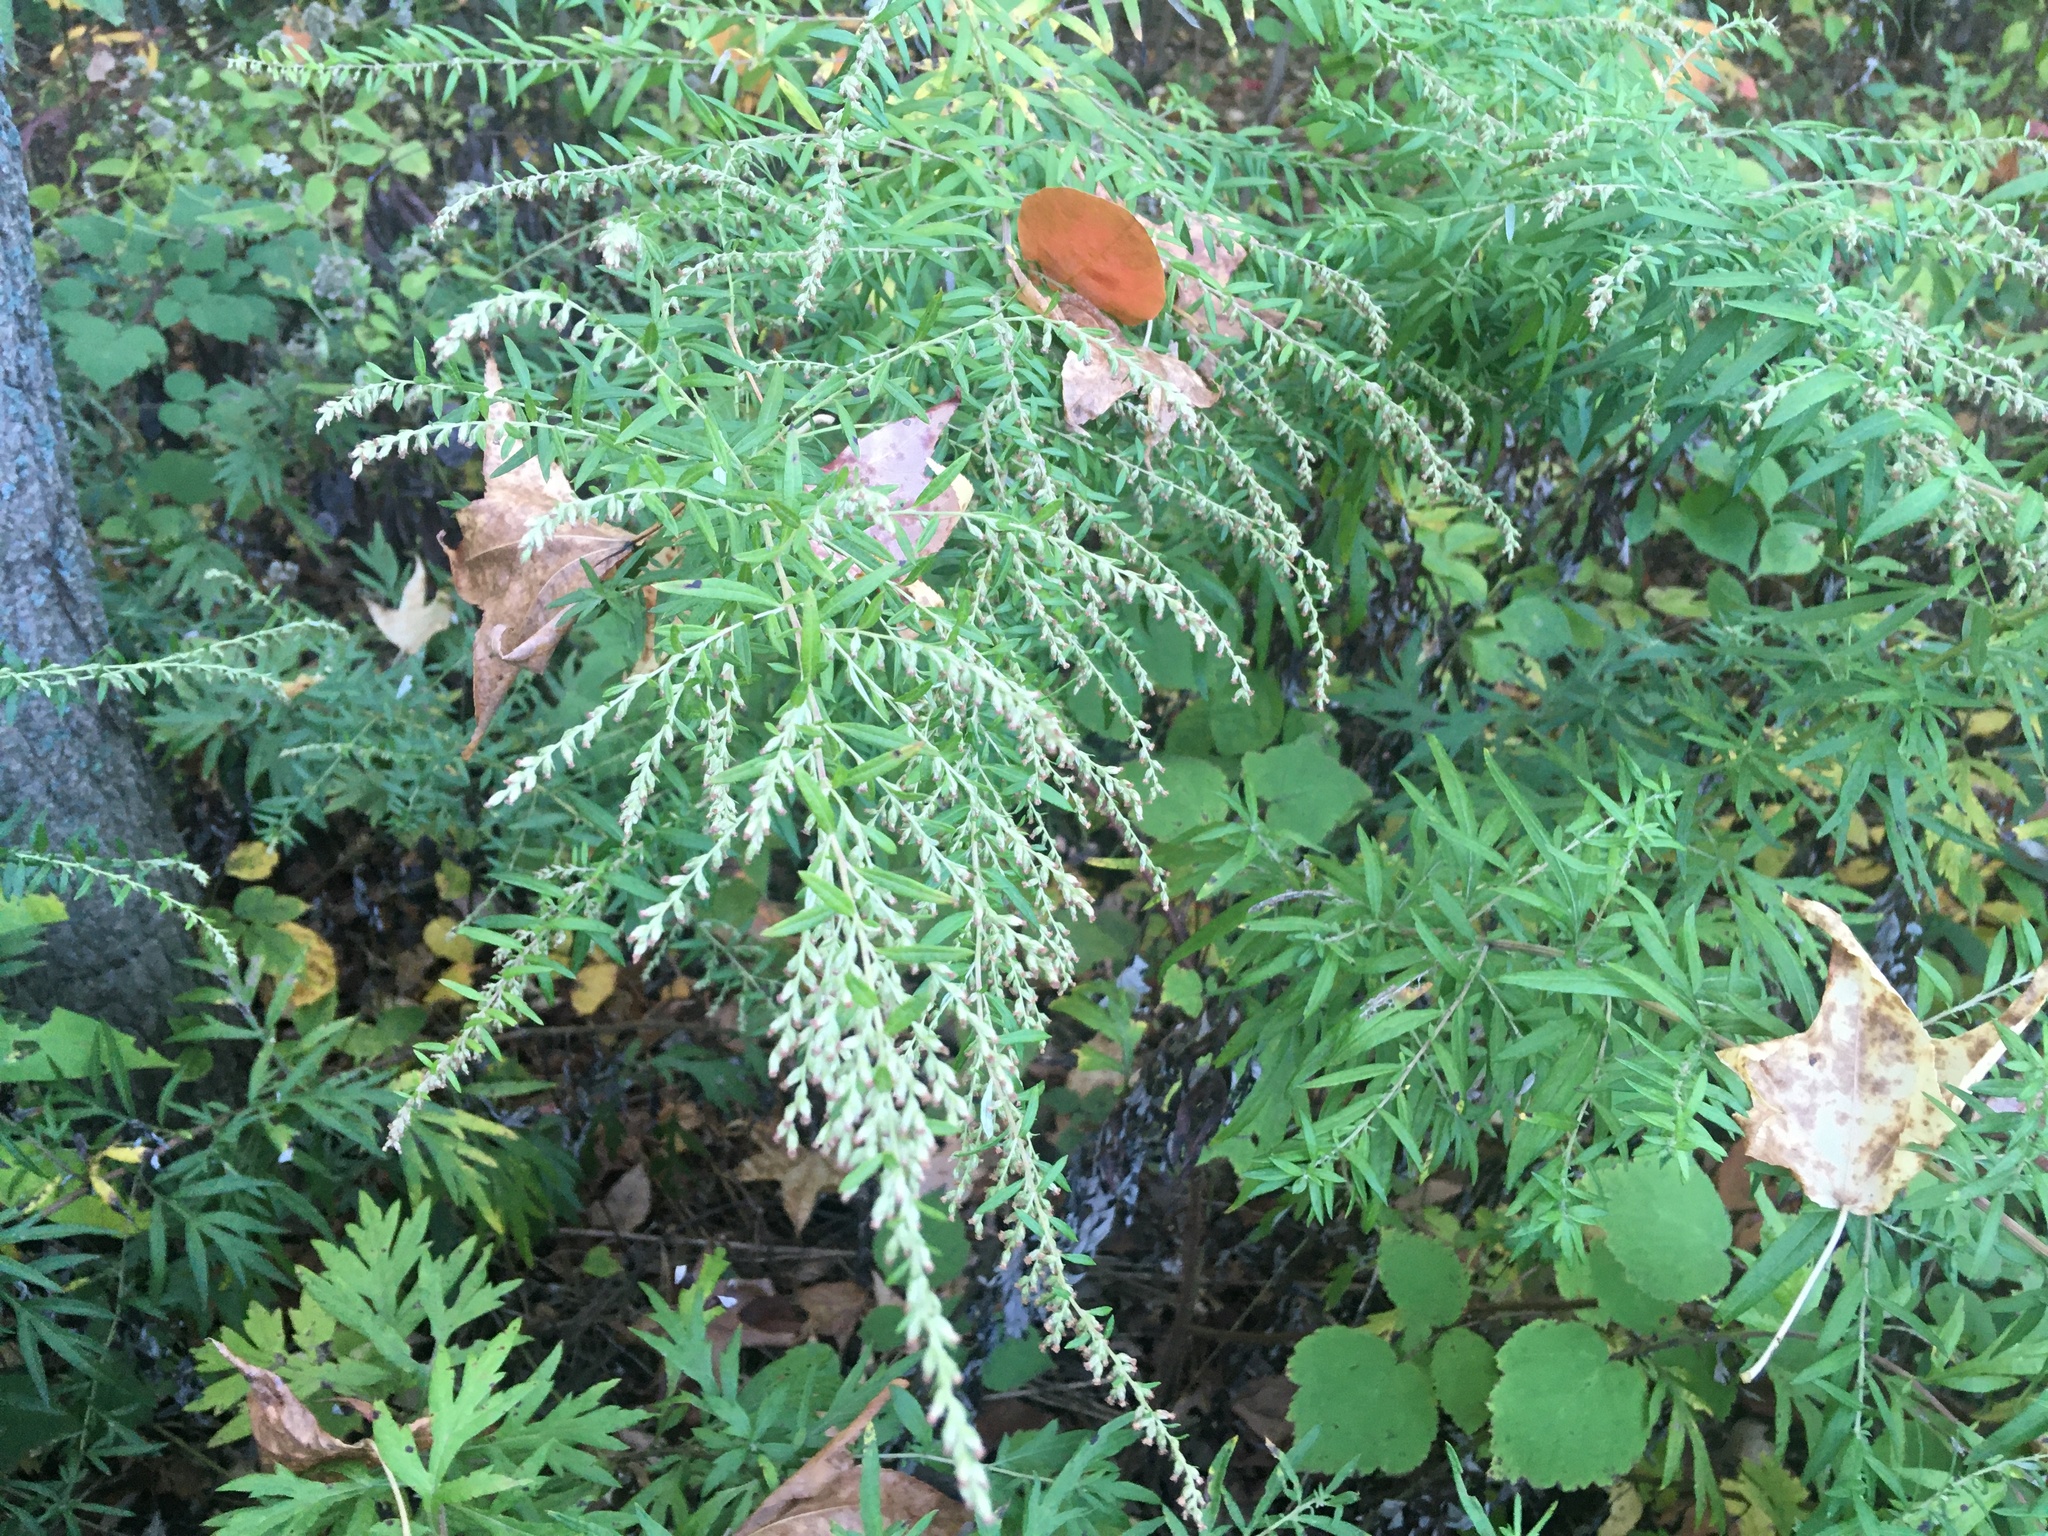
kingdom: Plantae
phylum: Tracheophyta
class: Magnoliopsida
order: Asterales
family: Asteraceae
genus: Artemisia
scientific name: Artemisia vulgaris
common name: Mugwort
